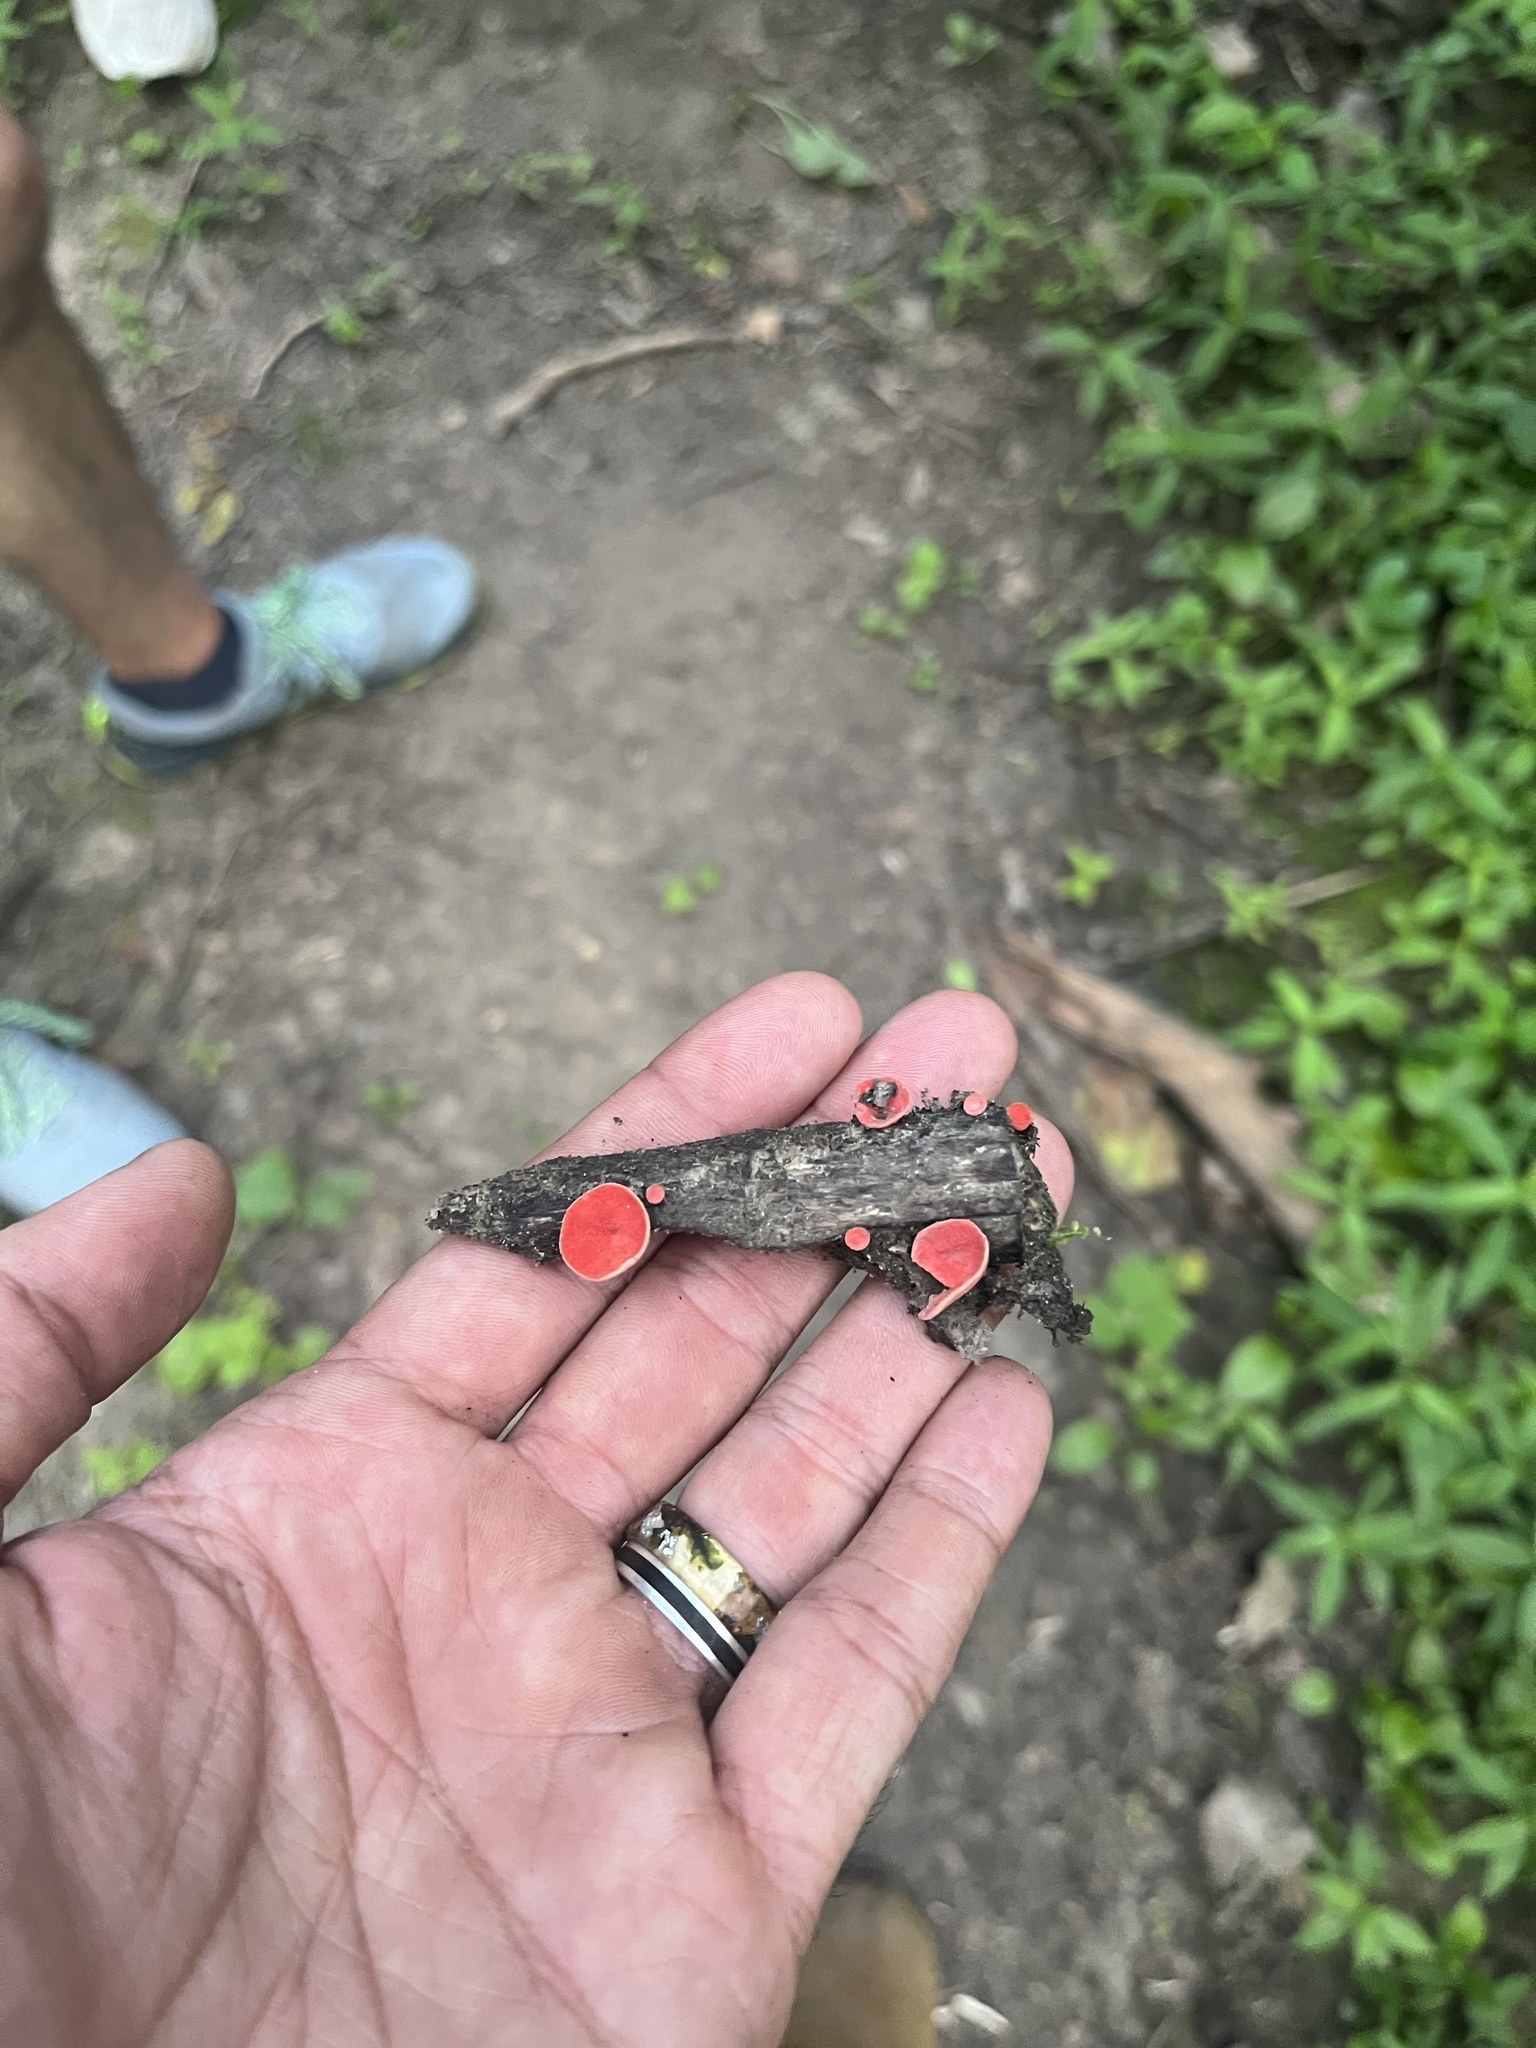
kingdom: Fungi
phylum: Ascomycota
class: Pezizomycetes
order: Pezizales
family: Sarcoscyphaceae
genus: Sarcoscypha
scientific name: Sarcoscypha occidentalis
